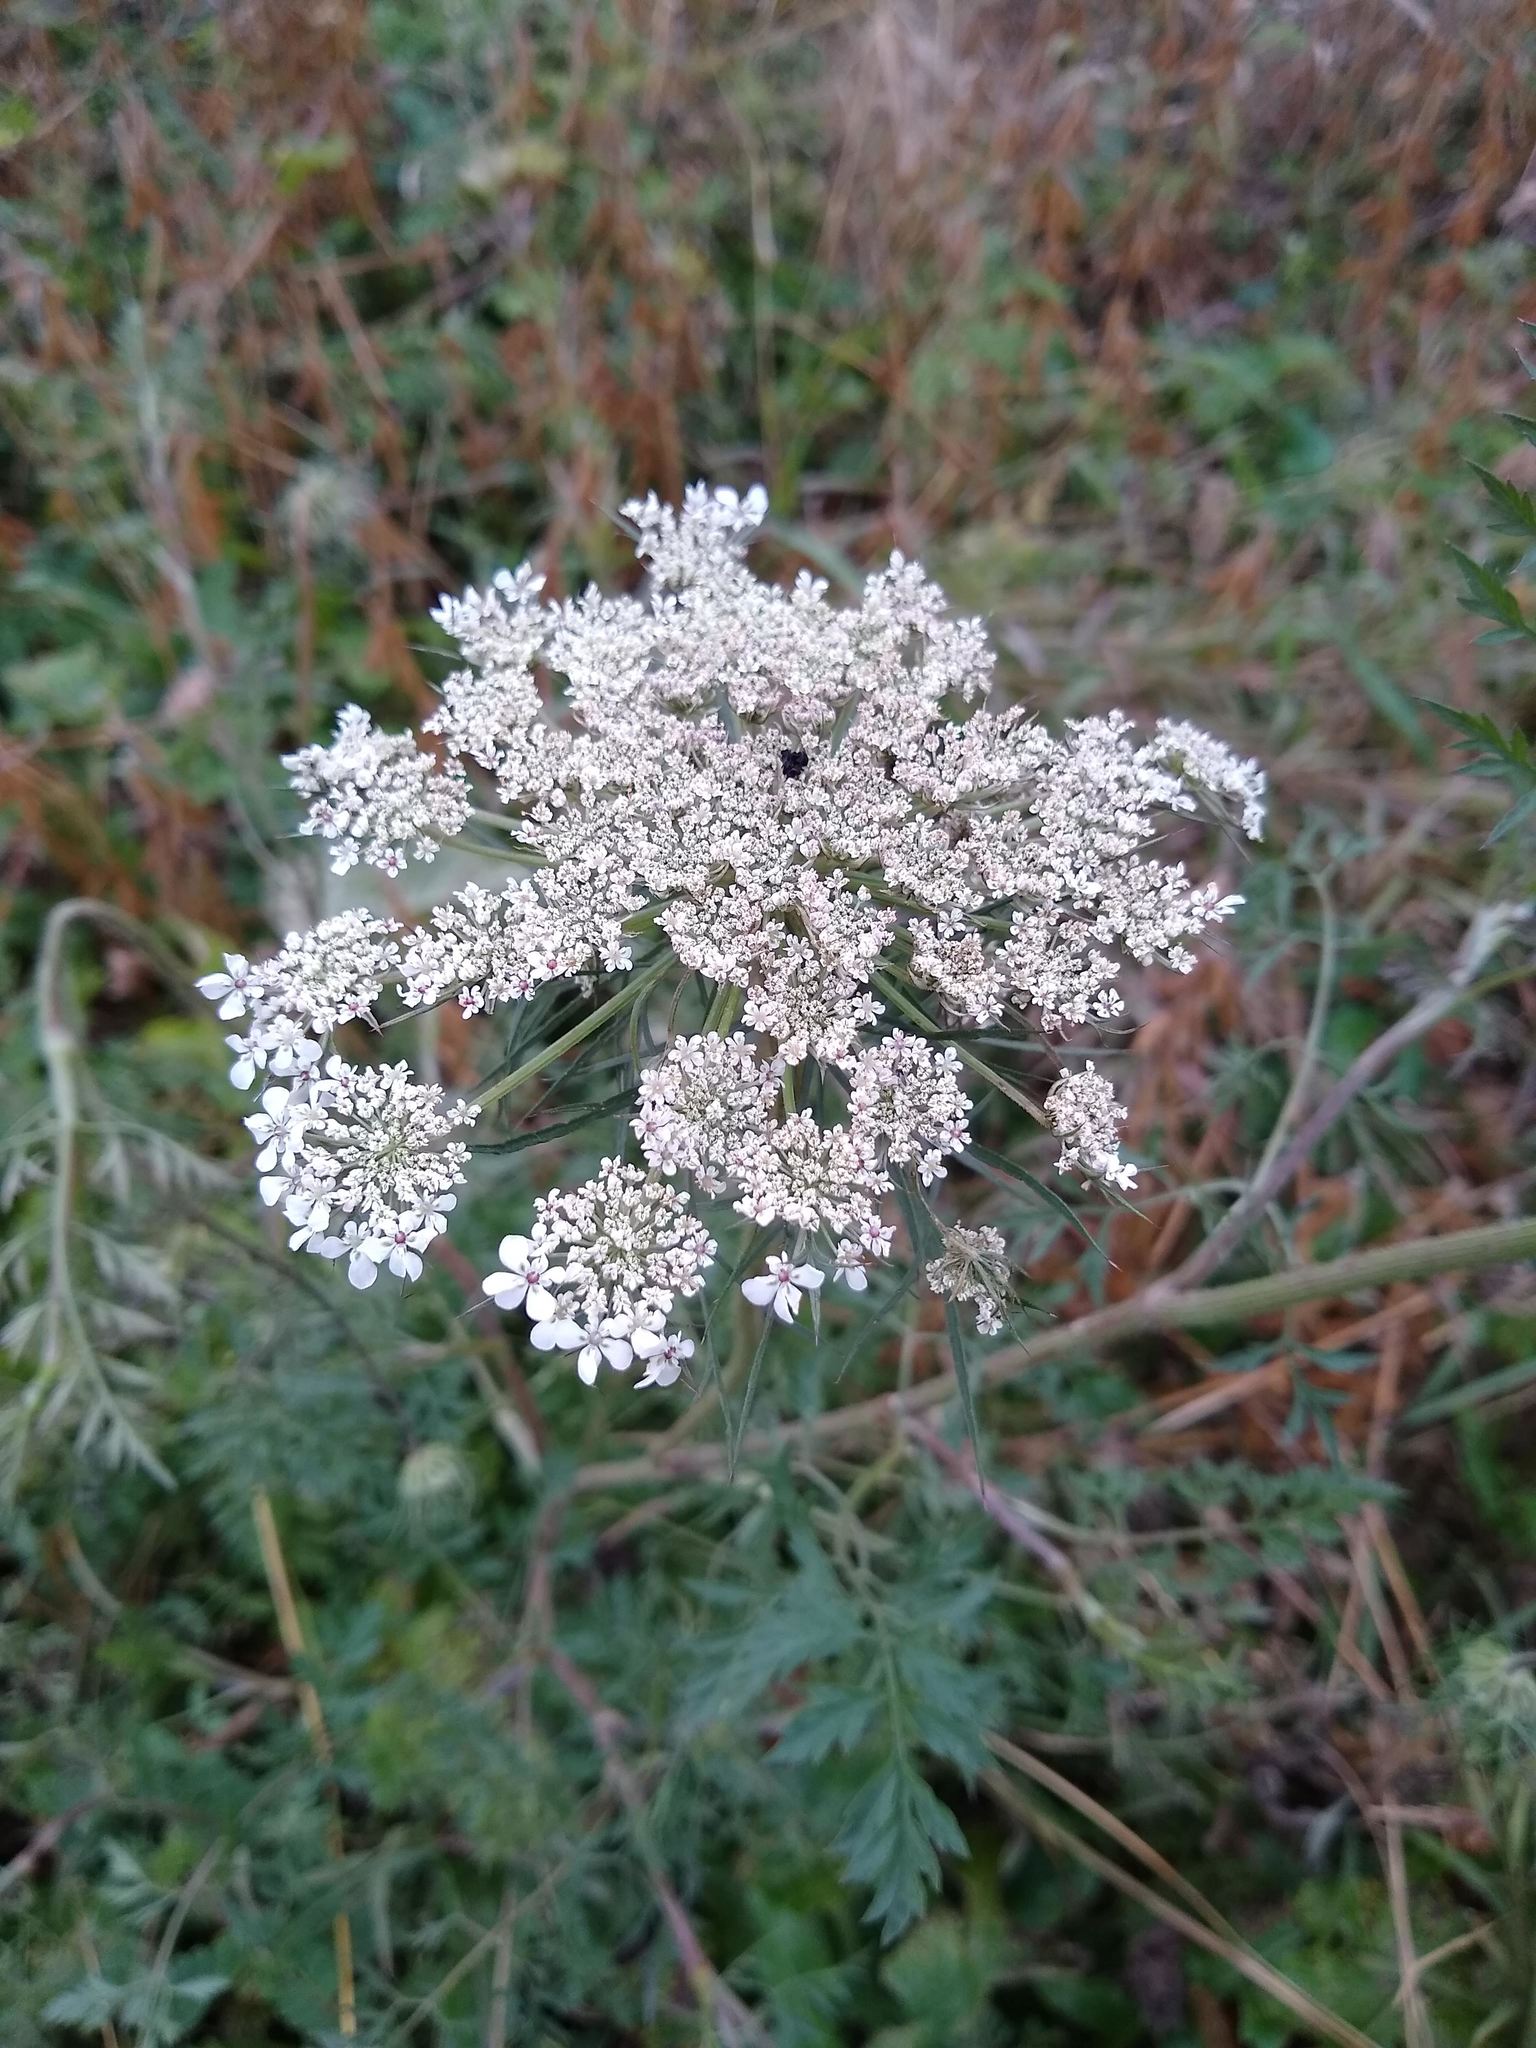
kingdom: Plantae
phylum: Tracheophyta
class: Magnoliopsida
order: Apiales
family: Apiaceae
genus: Daucus
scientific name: Daucus carota
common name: Wild carrot
